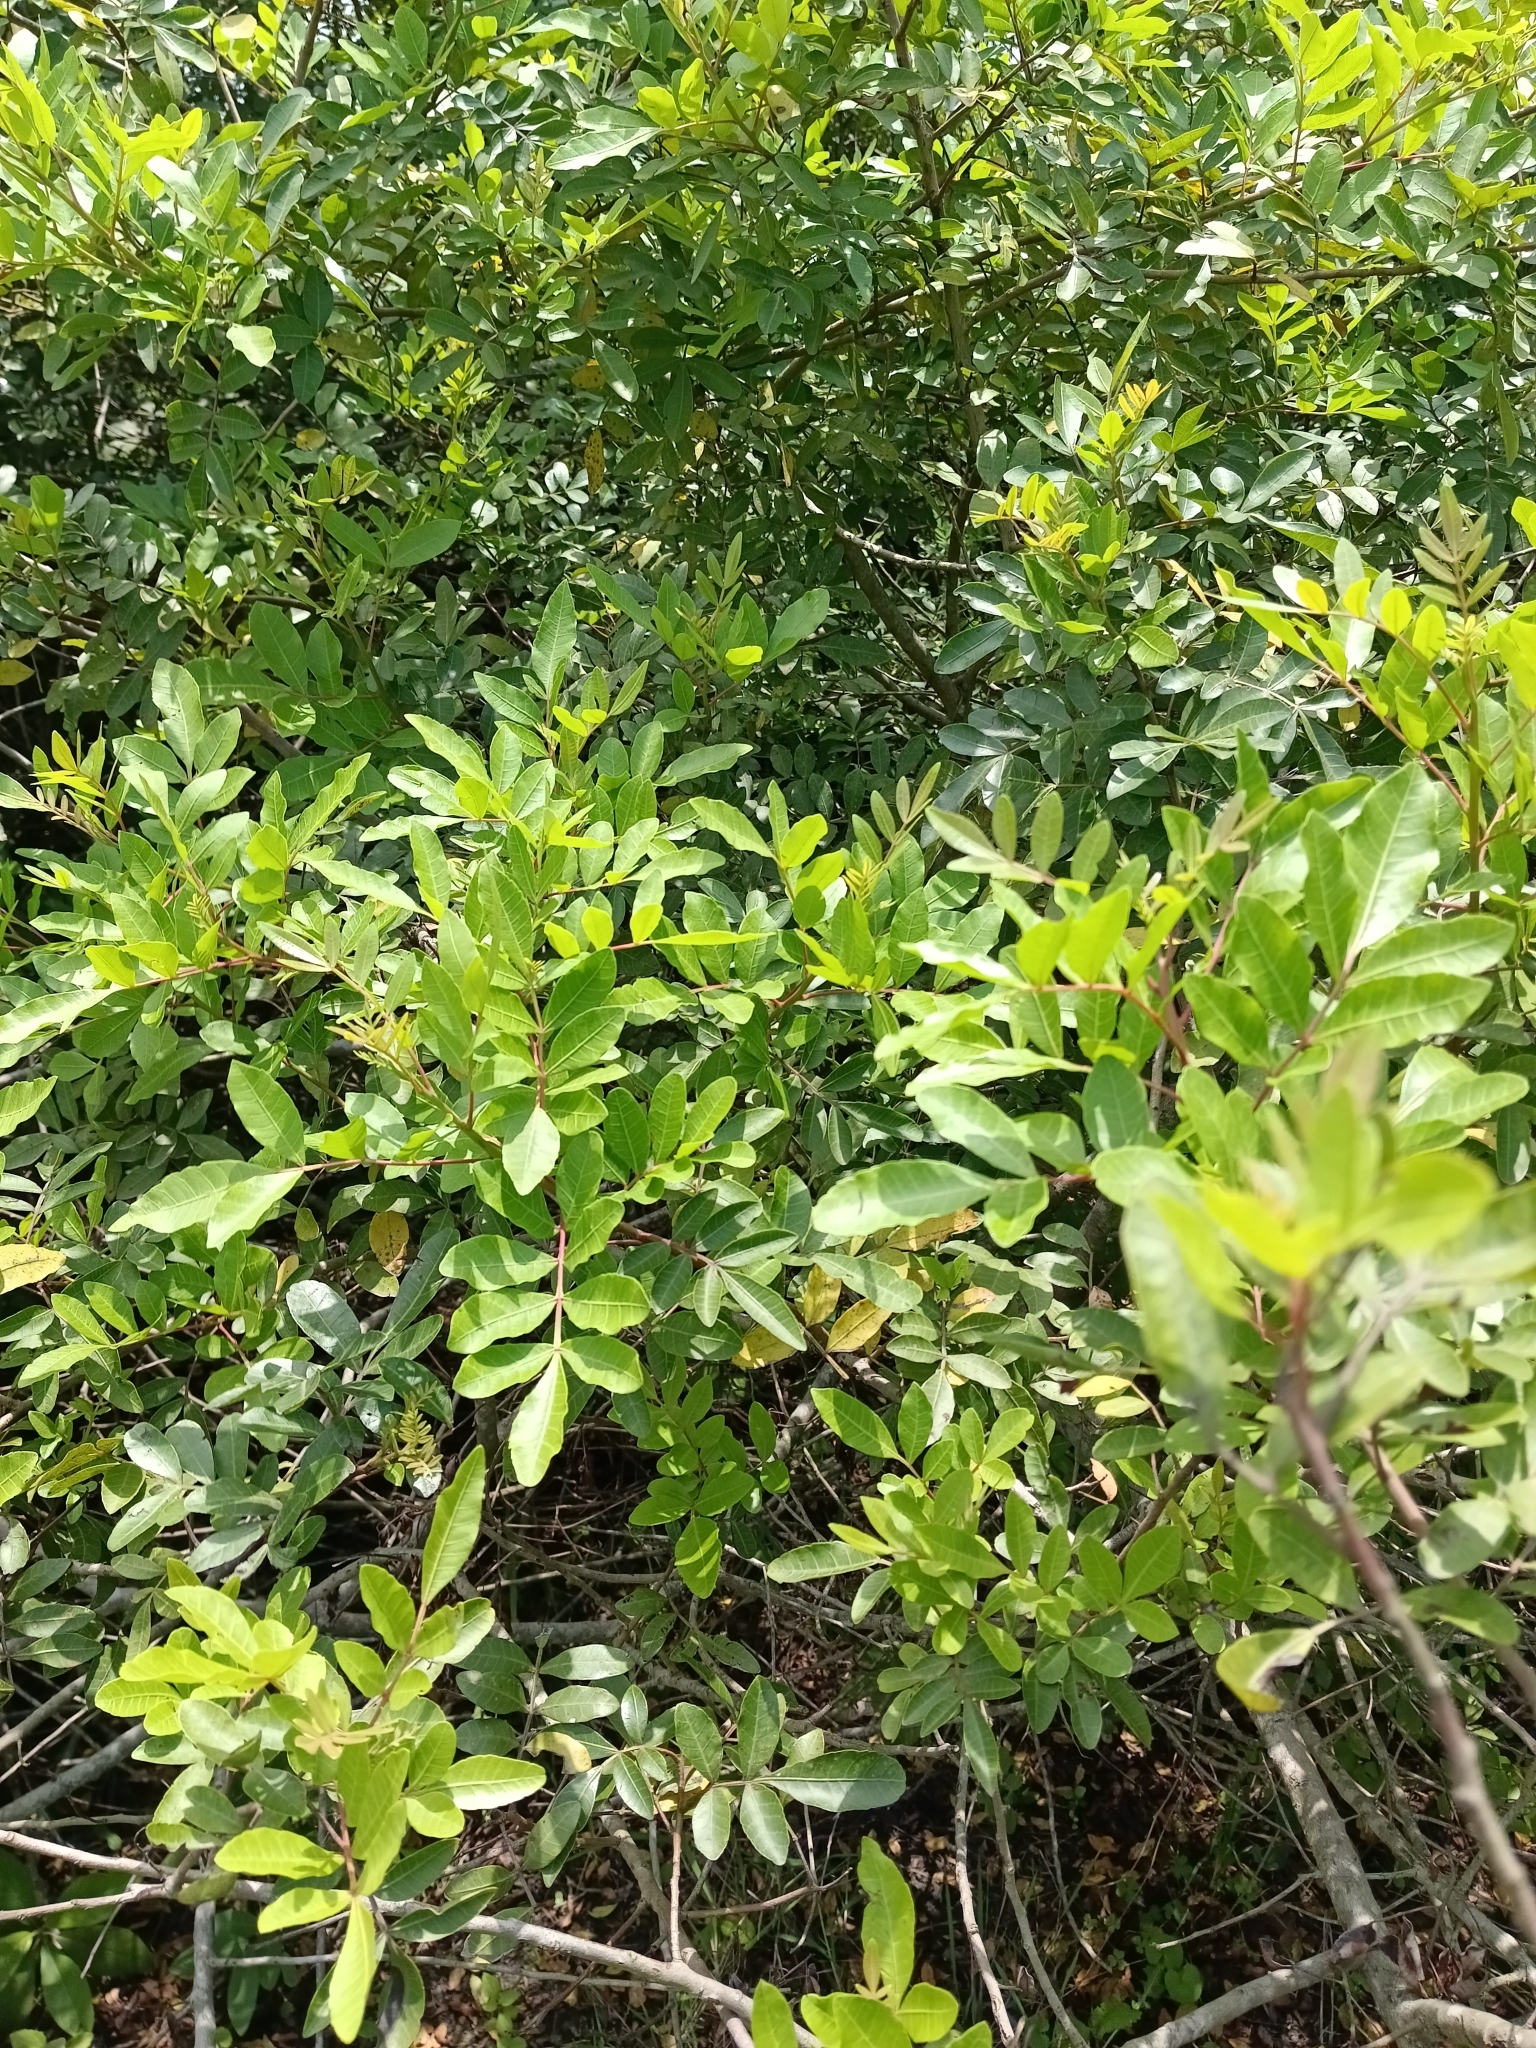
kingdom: Plantae
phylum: Tracheophyta
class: Magnoliopsida
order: Sapindales
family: Anacardiaceae
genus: Schinus
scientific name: Schinus terebinthifolia
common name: Brazilian peppertree
